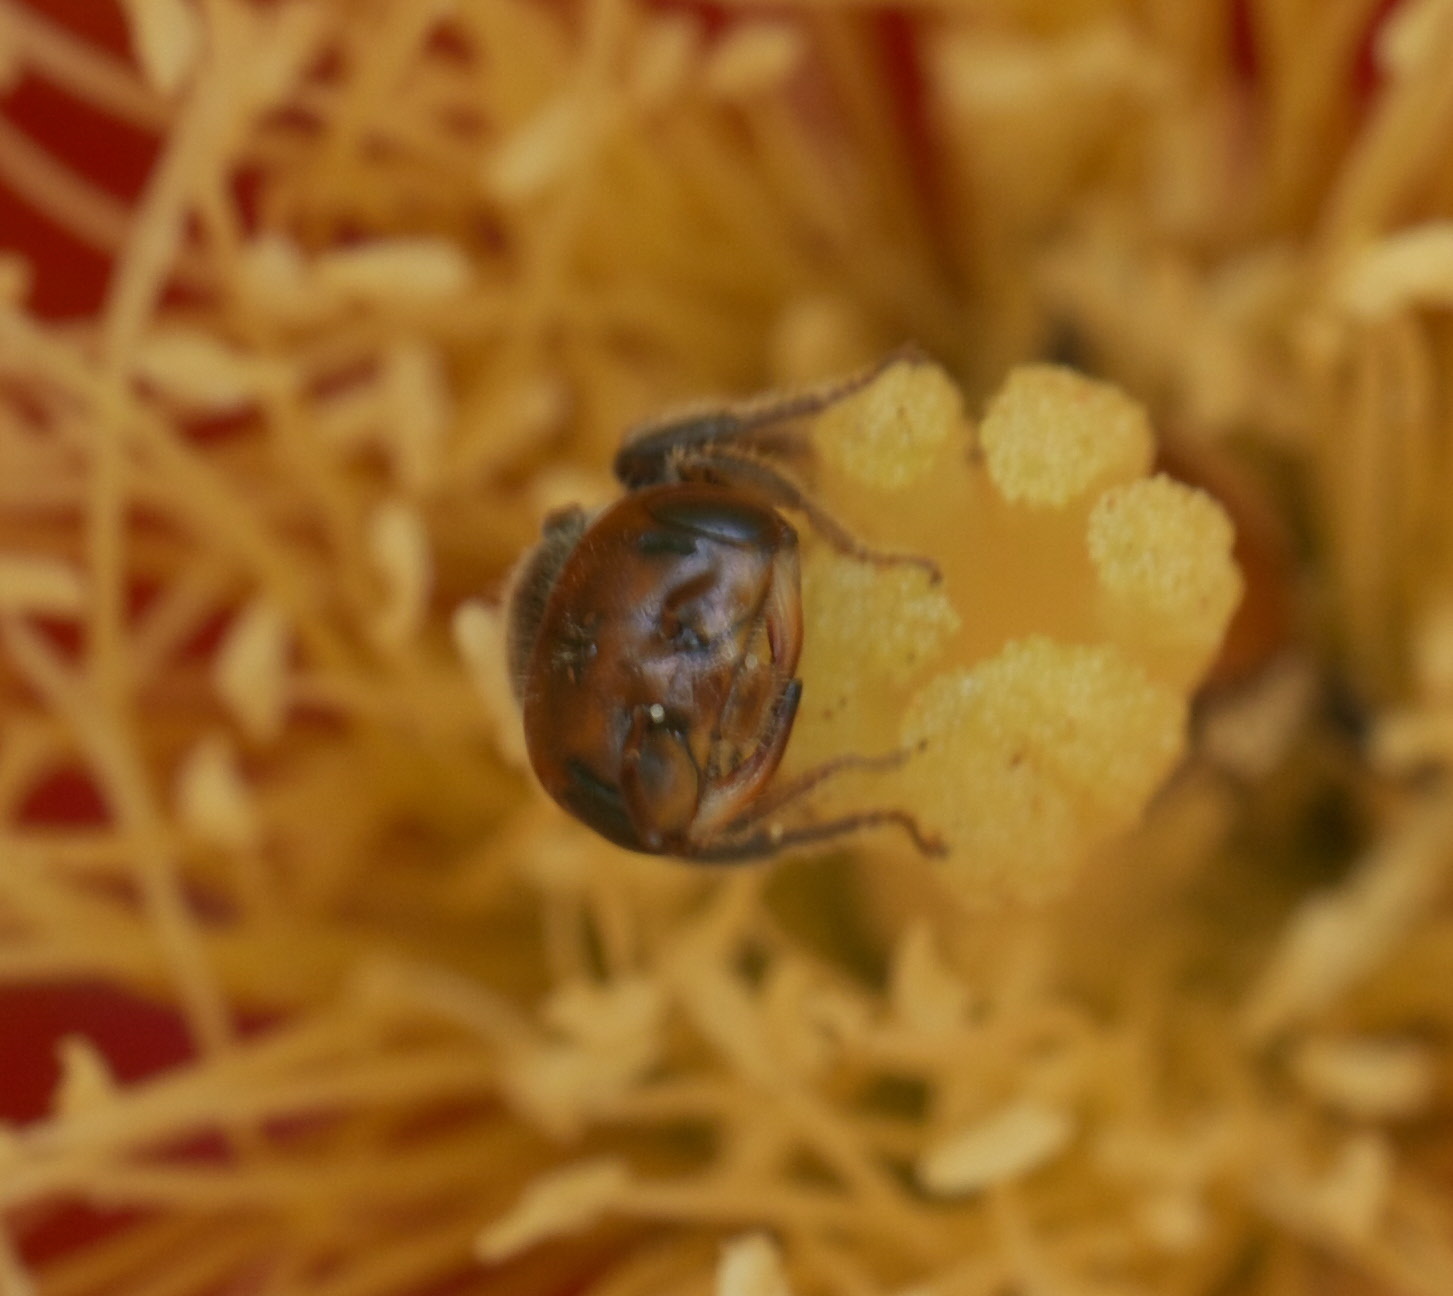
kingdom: Animalia
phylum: Arthropoda
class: Insecta
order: Hymenoptera
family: Andrenidae
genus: Macrotera
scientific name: Macrotera
